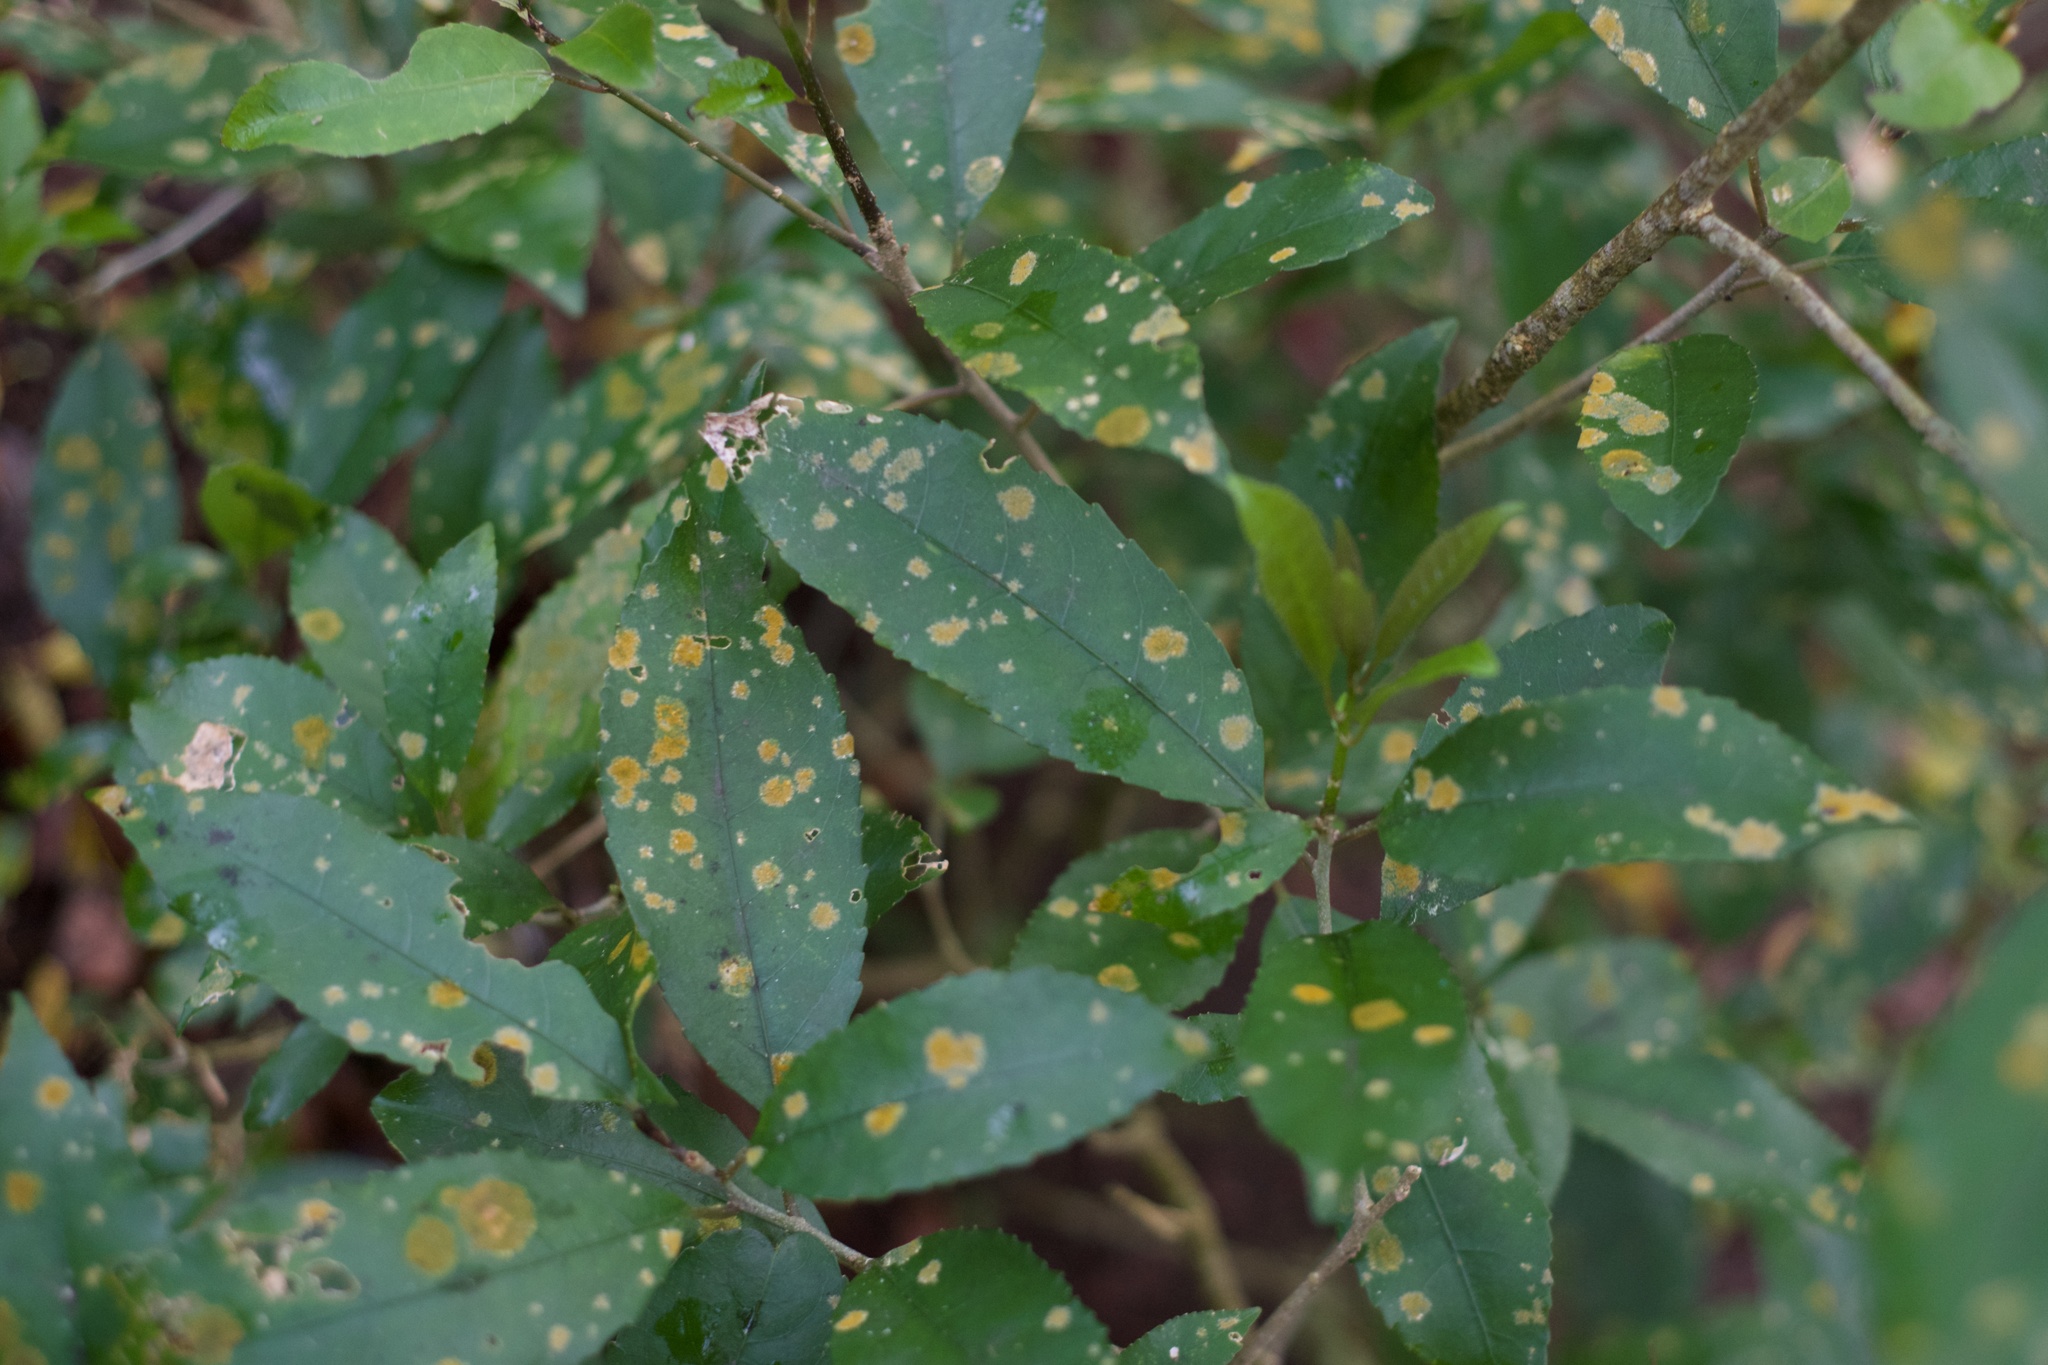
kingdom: Plantae
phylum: Chlorophyta
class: Ulvophyceae
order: Trentepohliales
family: Trentepohliaceae
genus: Cephaleuros
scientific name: Cephaleuros
